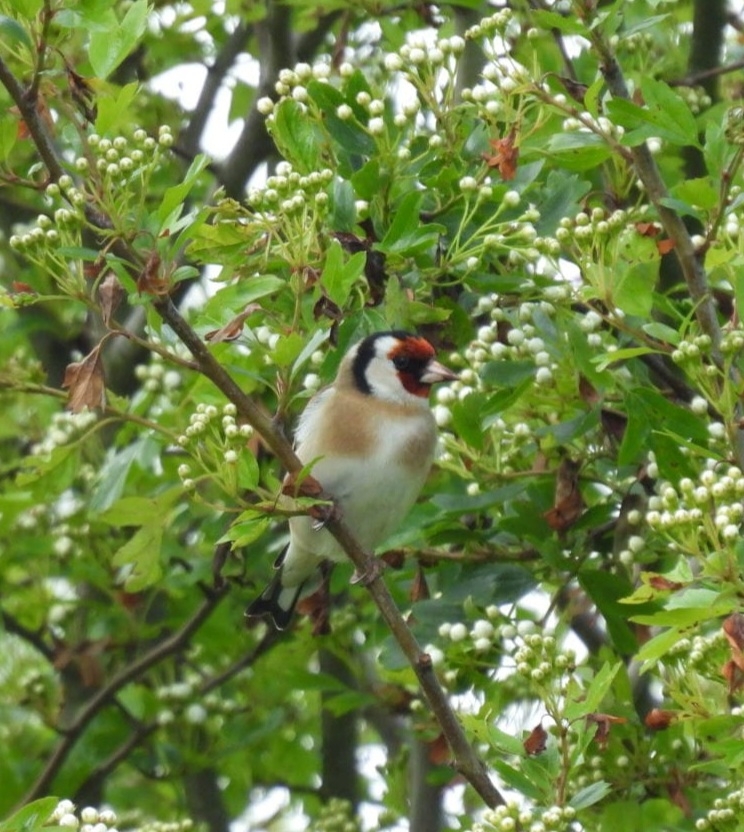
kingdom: Animalia
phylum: Chordata
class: Aves
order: Passeriformes
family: Fringillidae
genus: Carduelis
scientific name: Carduelis carduelis
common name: European goldfinch
